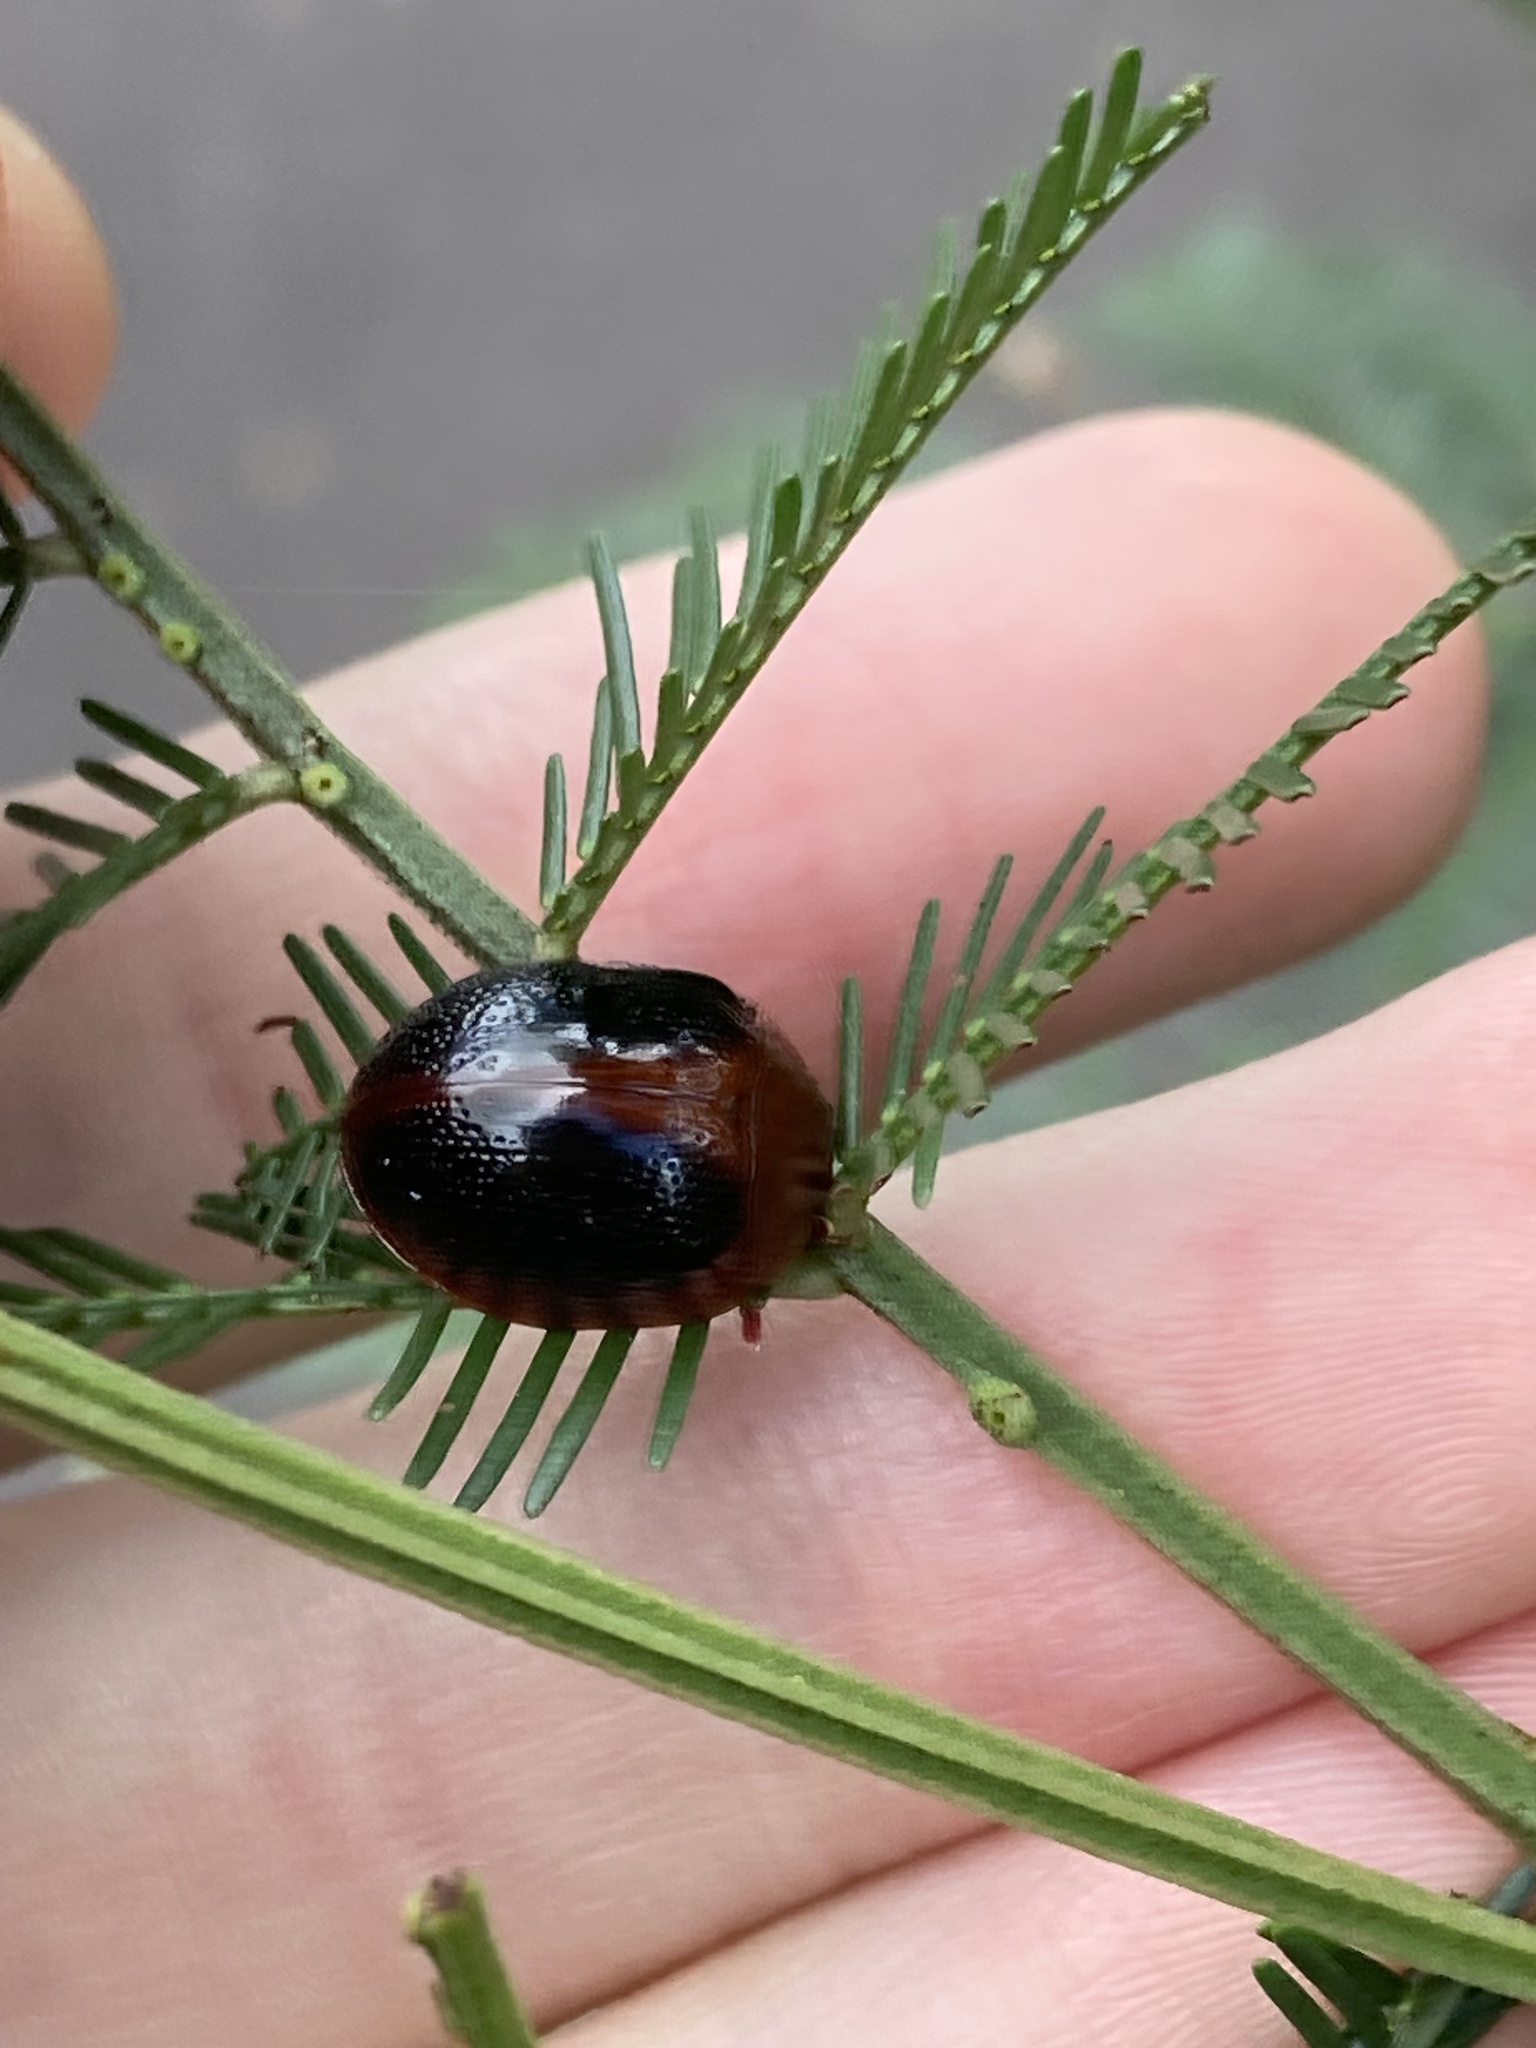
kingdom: Animalia
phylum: Arthropoda
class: Insecta
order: Coleoptera
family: Chrysomelidae
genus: Dicranosterna
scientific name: Dicranosterna
